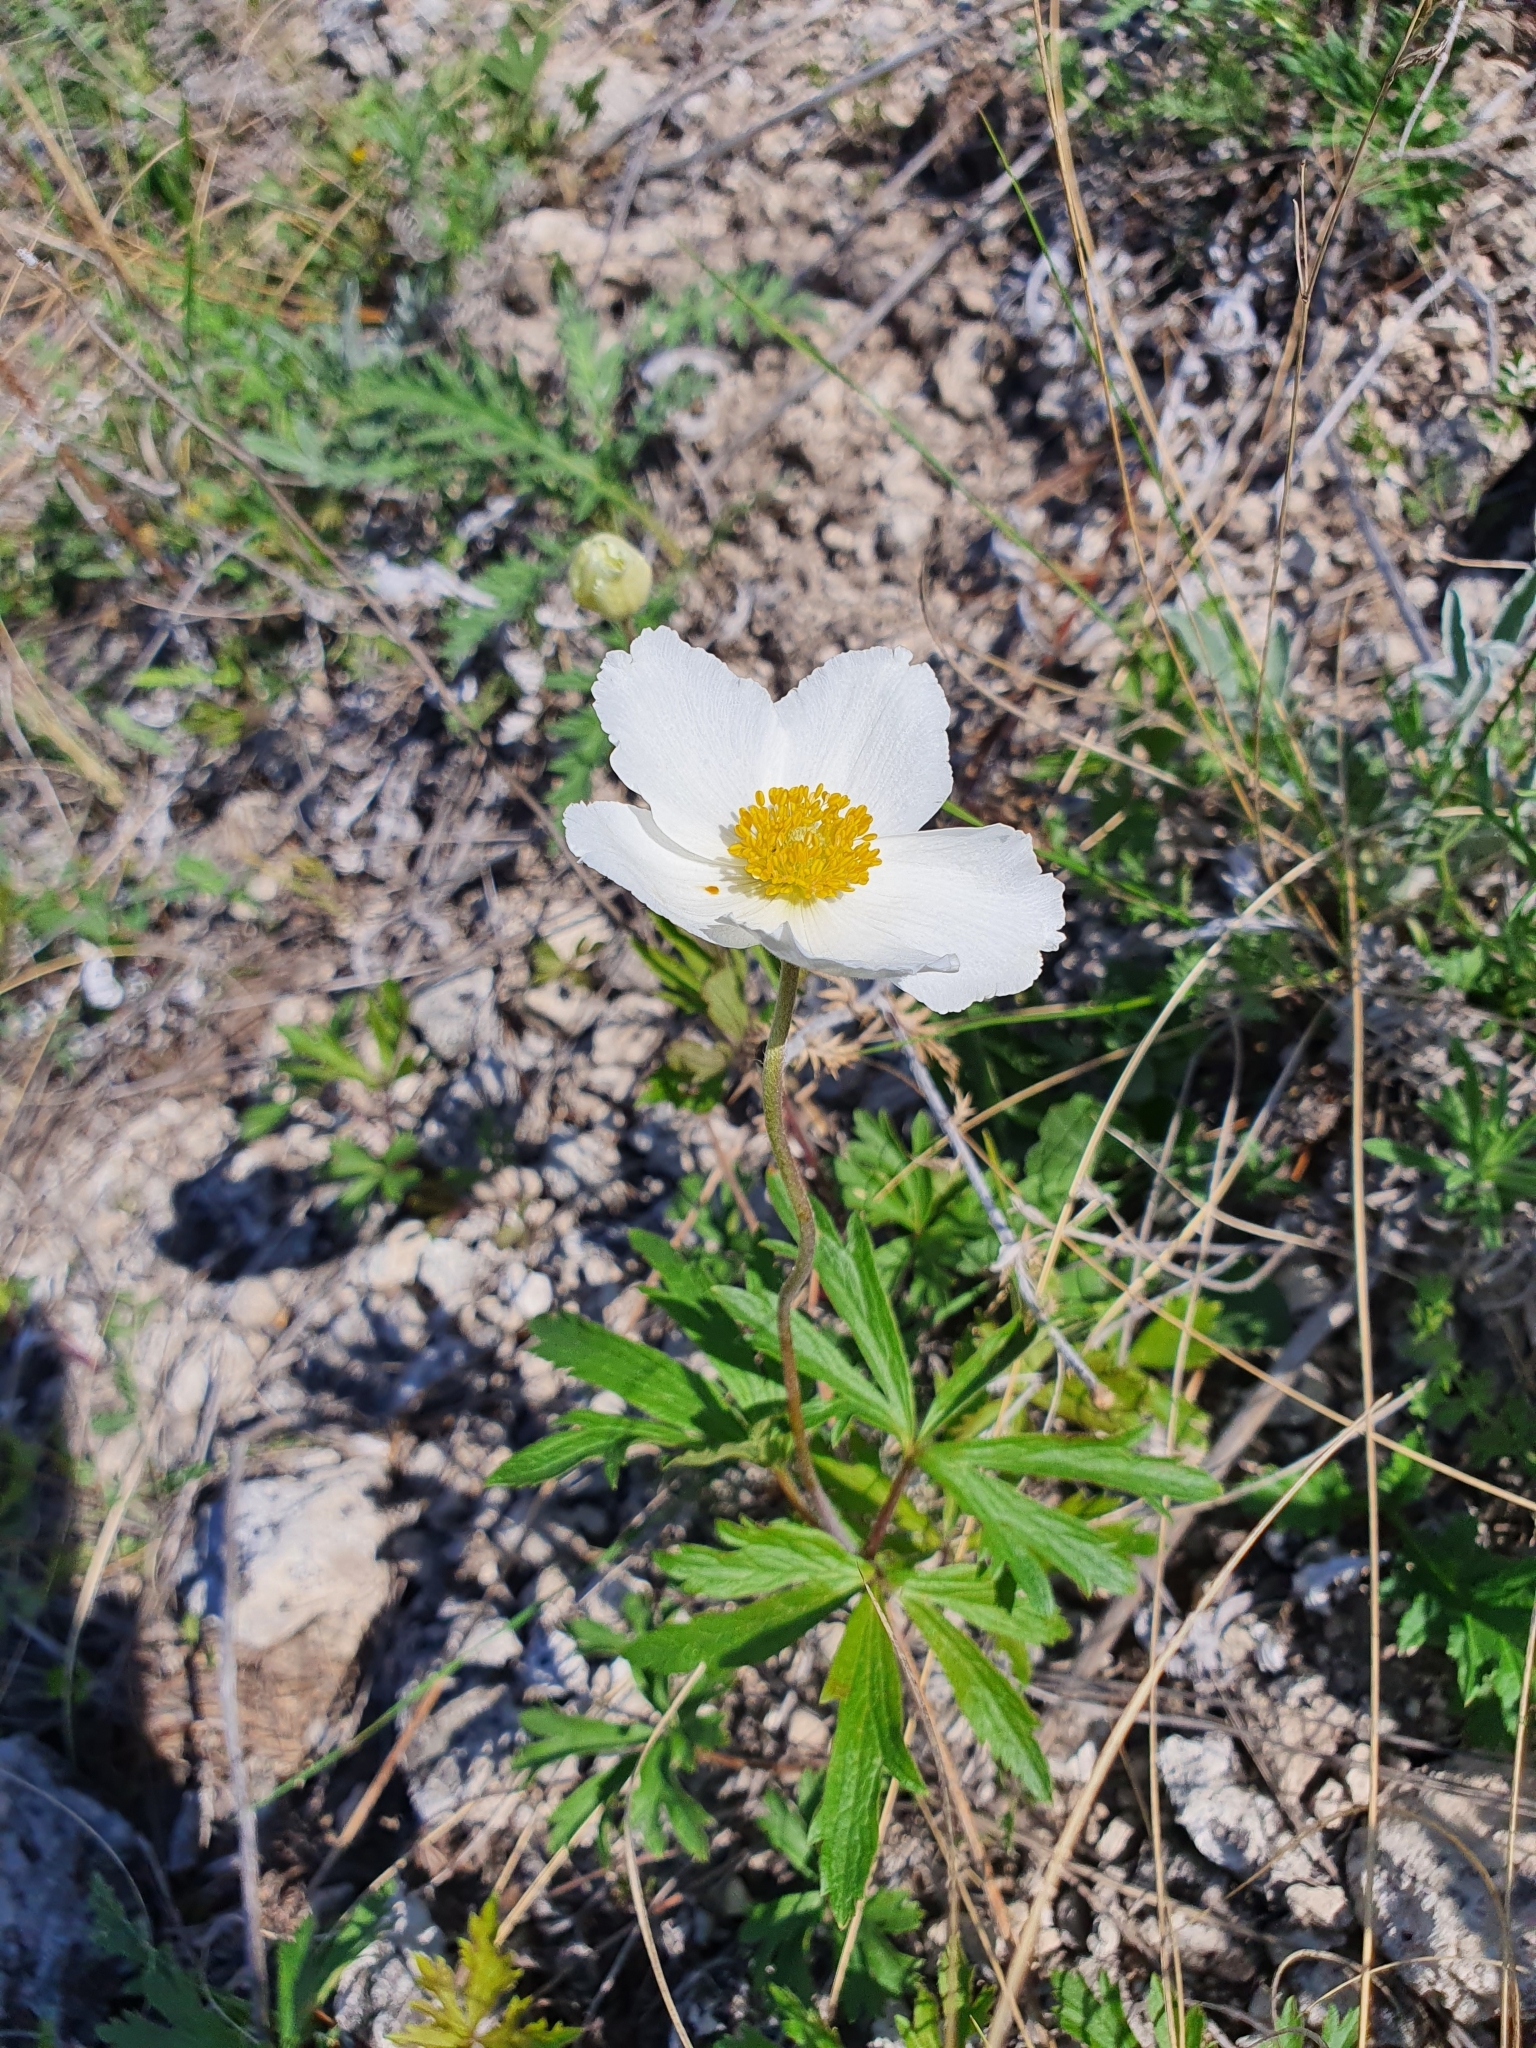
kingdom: Plantae
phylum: Tracheophyta
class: Magnoliopsida
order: Ranunculales
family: Ranunculaceae
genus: Anemone
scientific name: Anemone sylvestris
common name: Snowdrop anemone
